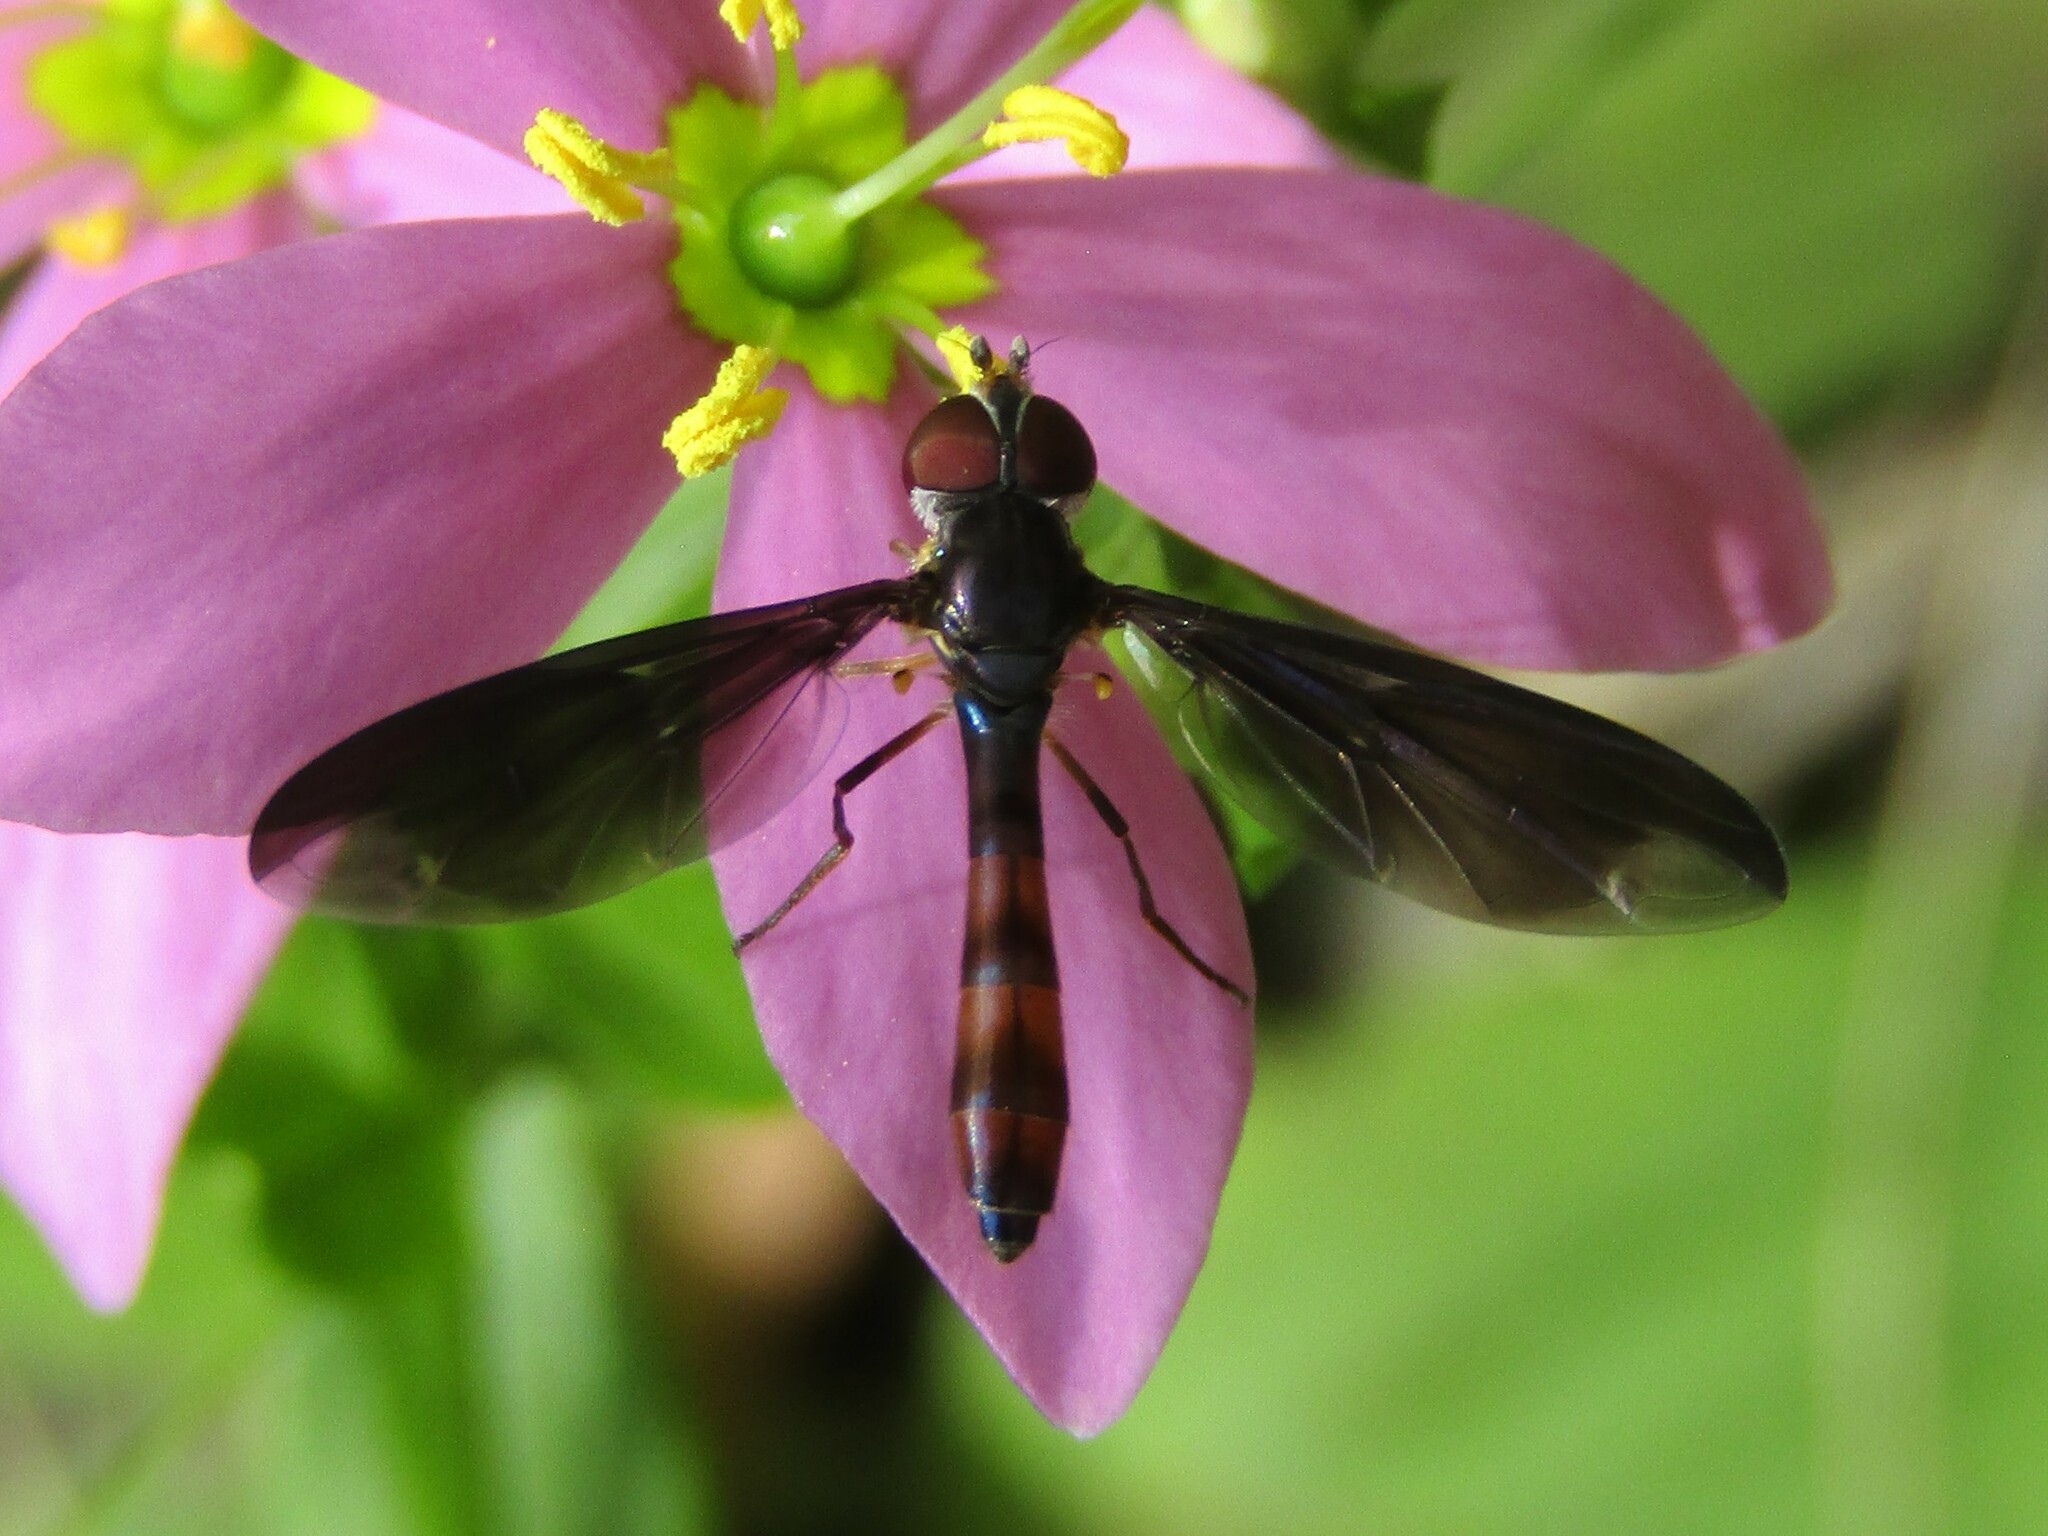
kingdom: Animalia
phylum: Arthropoda
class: Insecta
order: Diptera
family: Syrphidae
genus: Ocyptamus
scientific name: Ocyptamus fuscipennis
